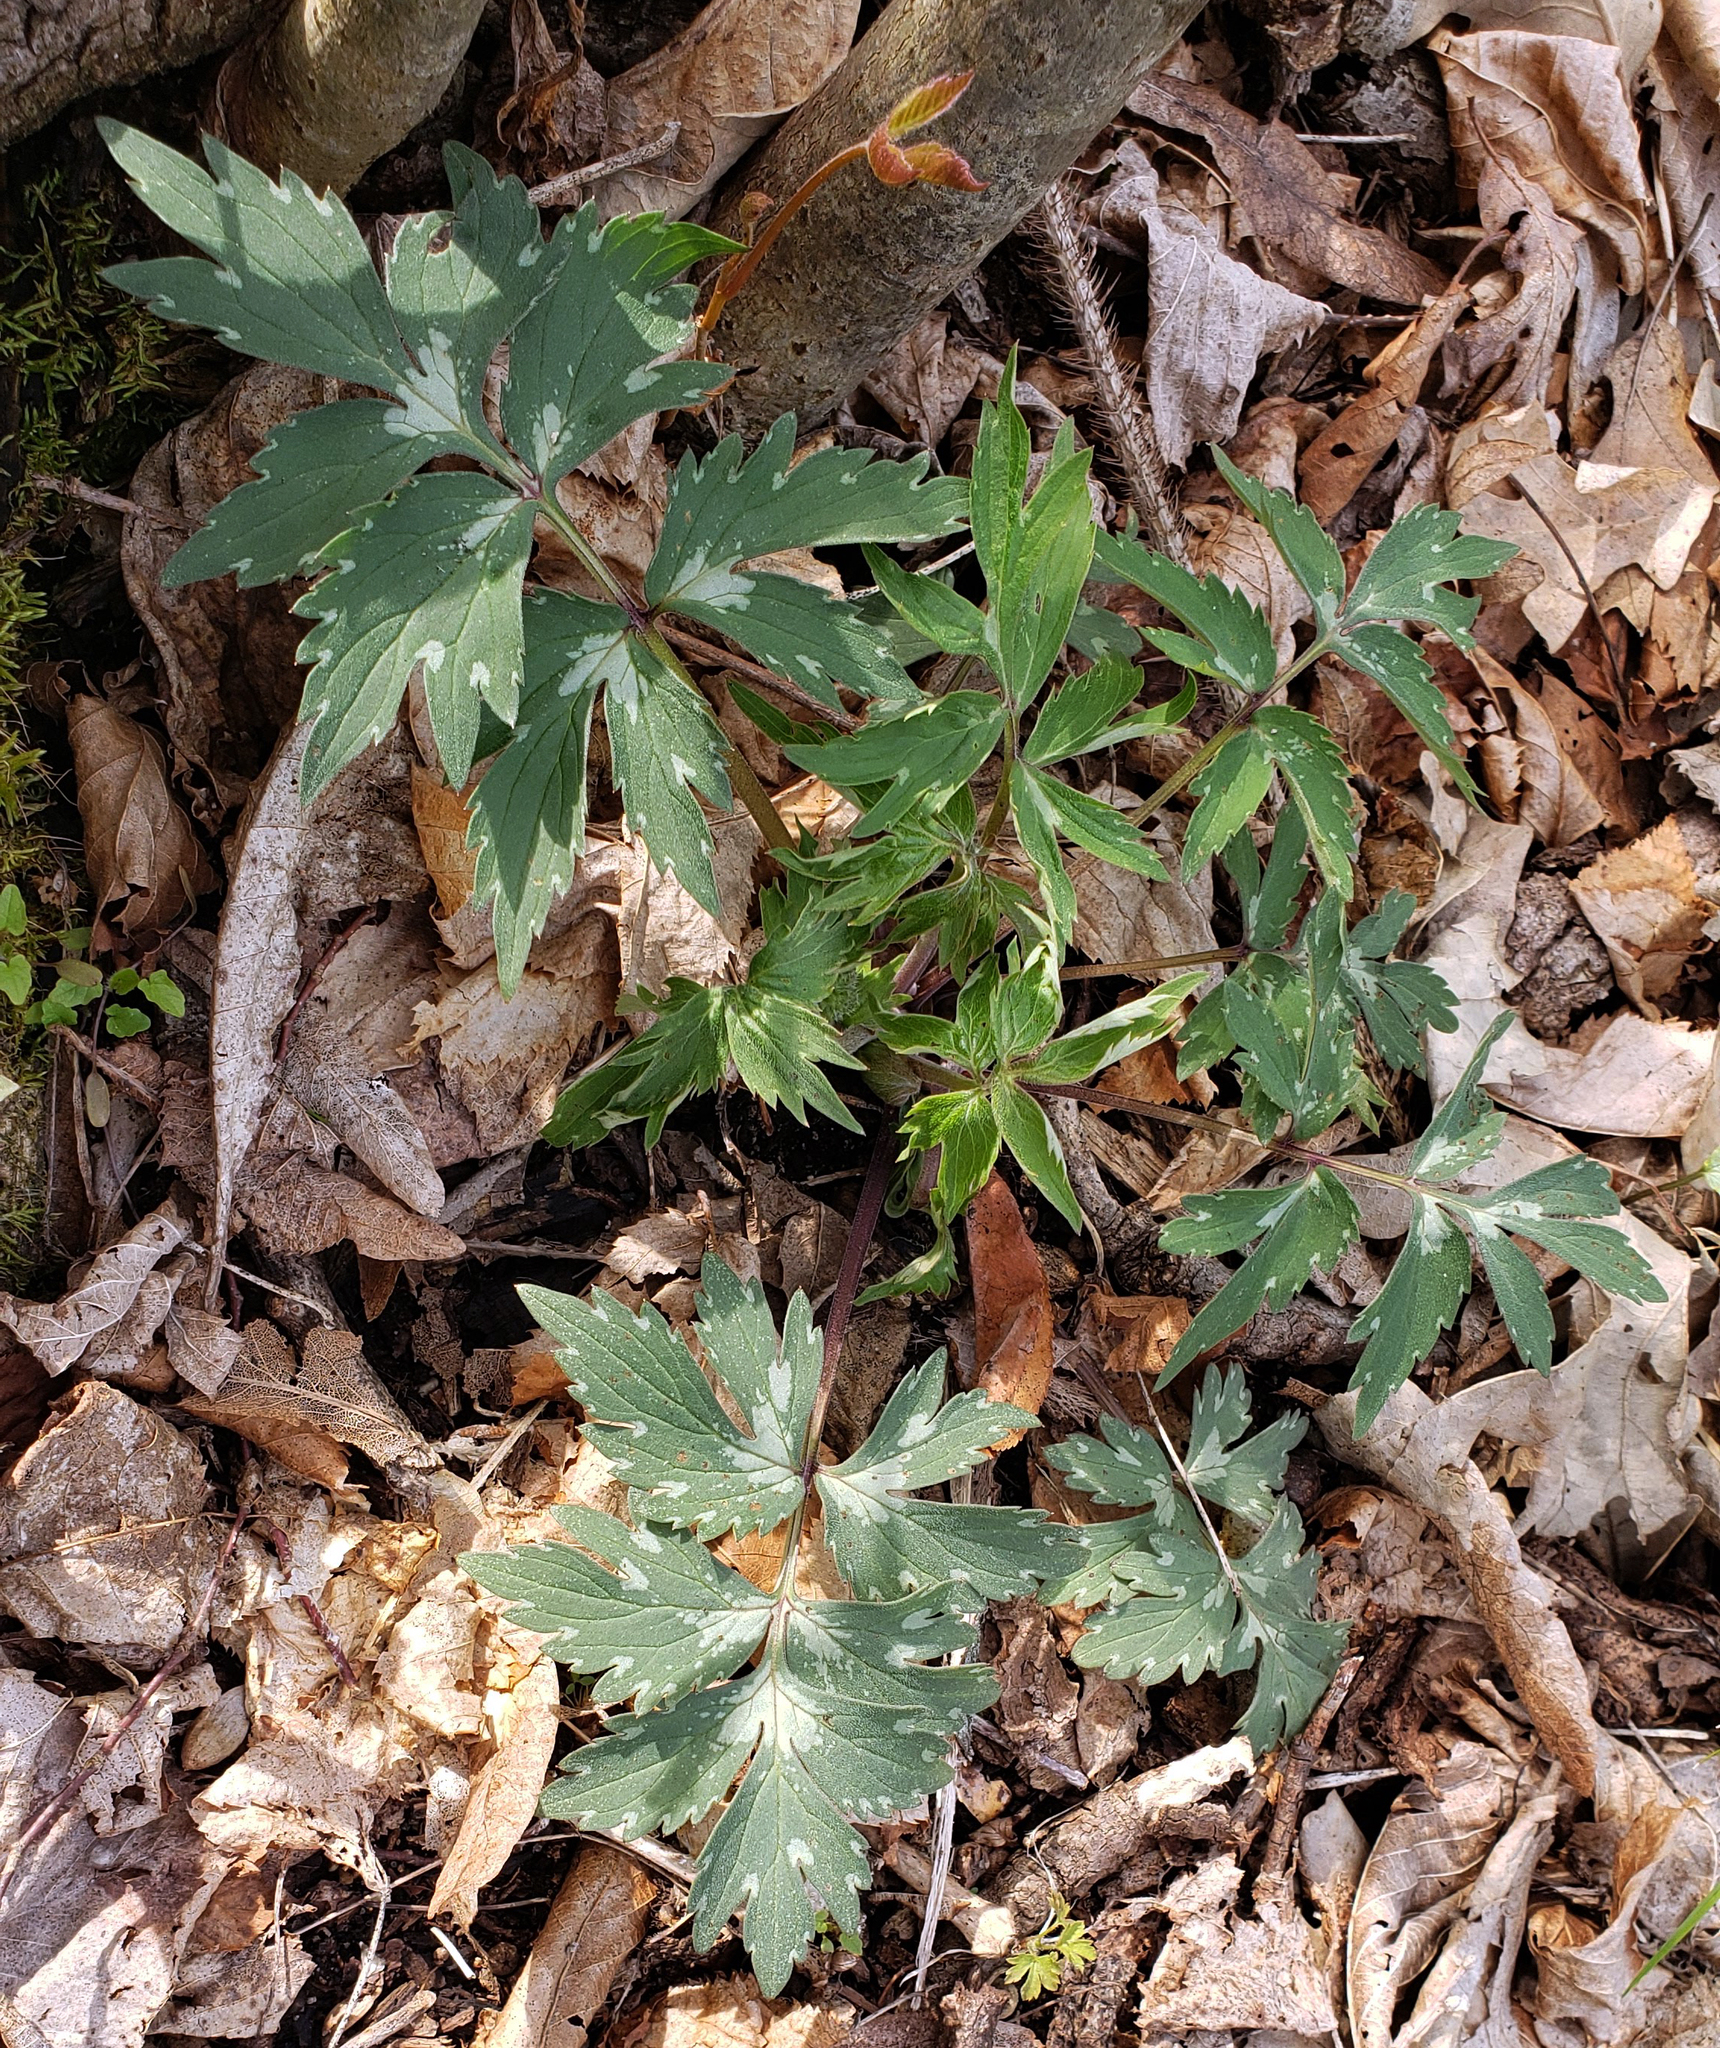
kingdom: Plantae
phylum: Tracheophyta
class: Magnoliopsida
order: Boraginales
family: Hydrophyllaceae
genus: Hydrophyllum
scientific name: Hydrophyllum virginianum
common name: Virginia waterleaf
